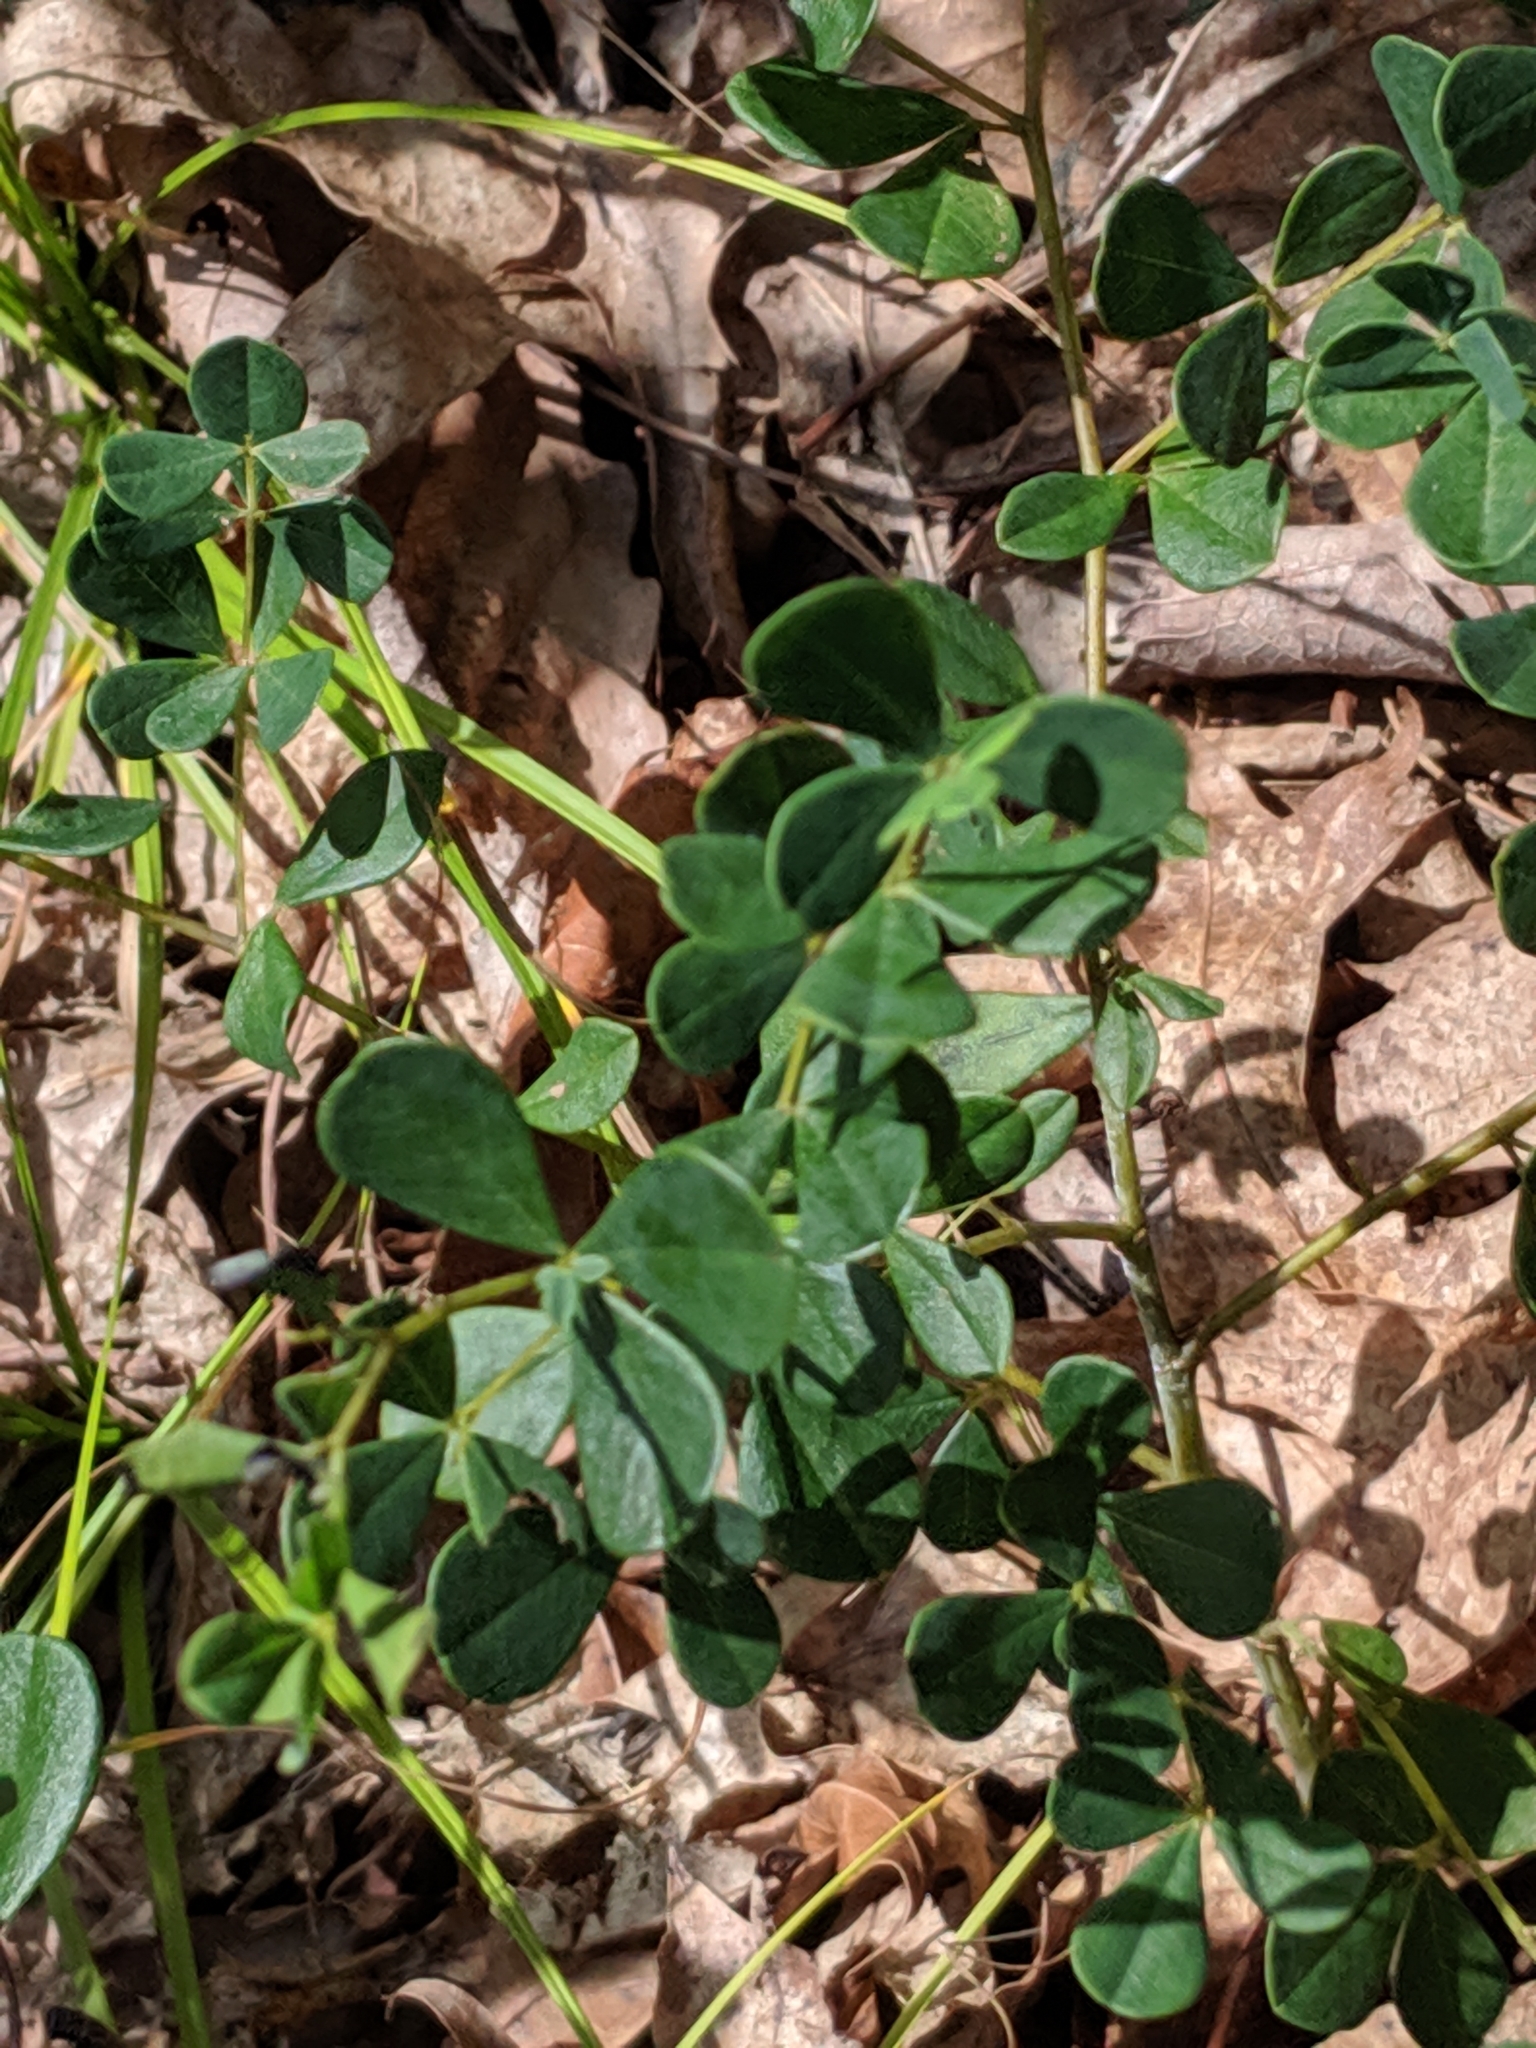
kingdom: Plantae
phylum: Tracheophyta
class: Magnoliopsida
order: Fabales
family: Fabaceae
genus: Baptisia
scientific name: Baptisia tinctoria
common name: Wild indigo
